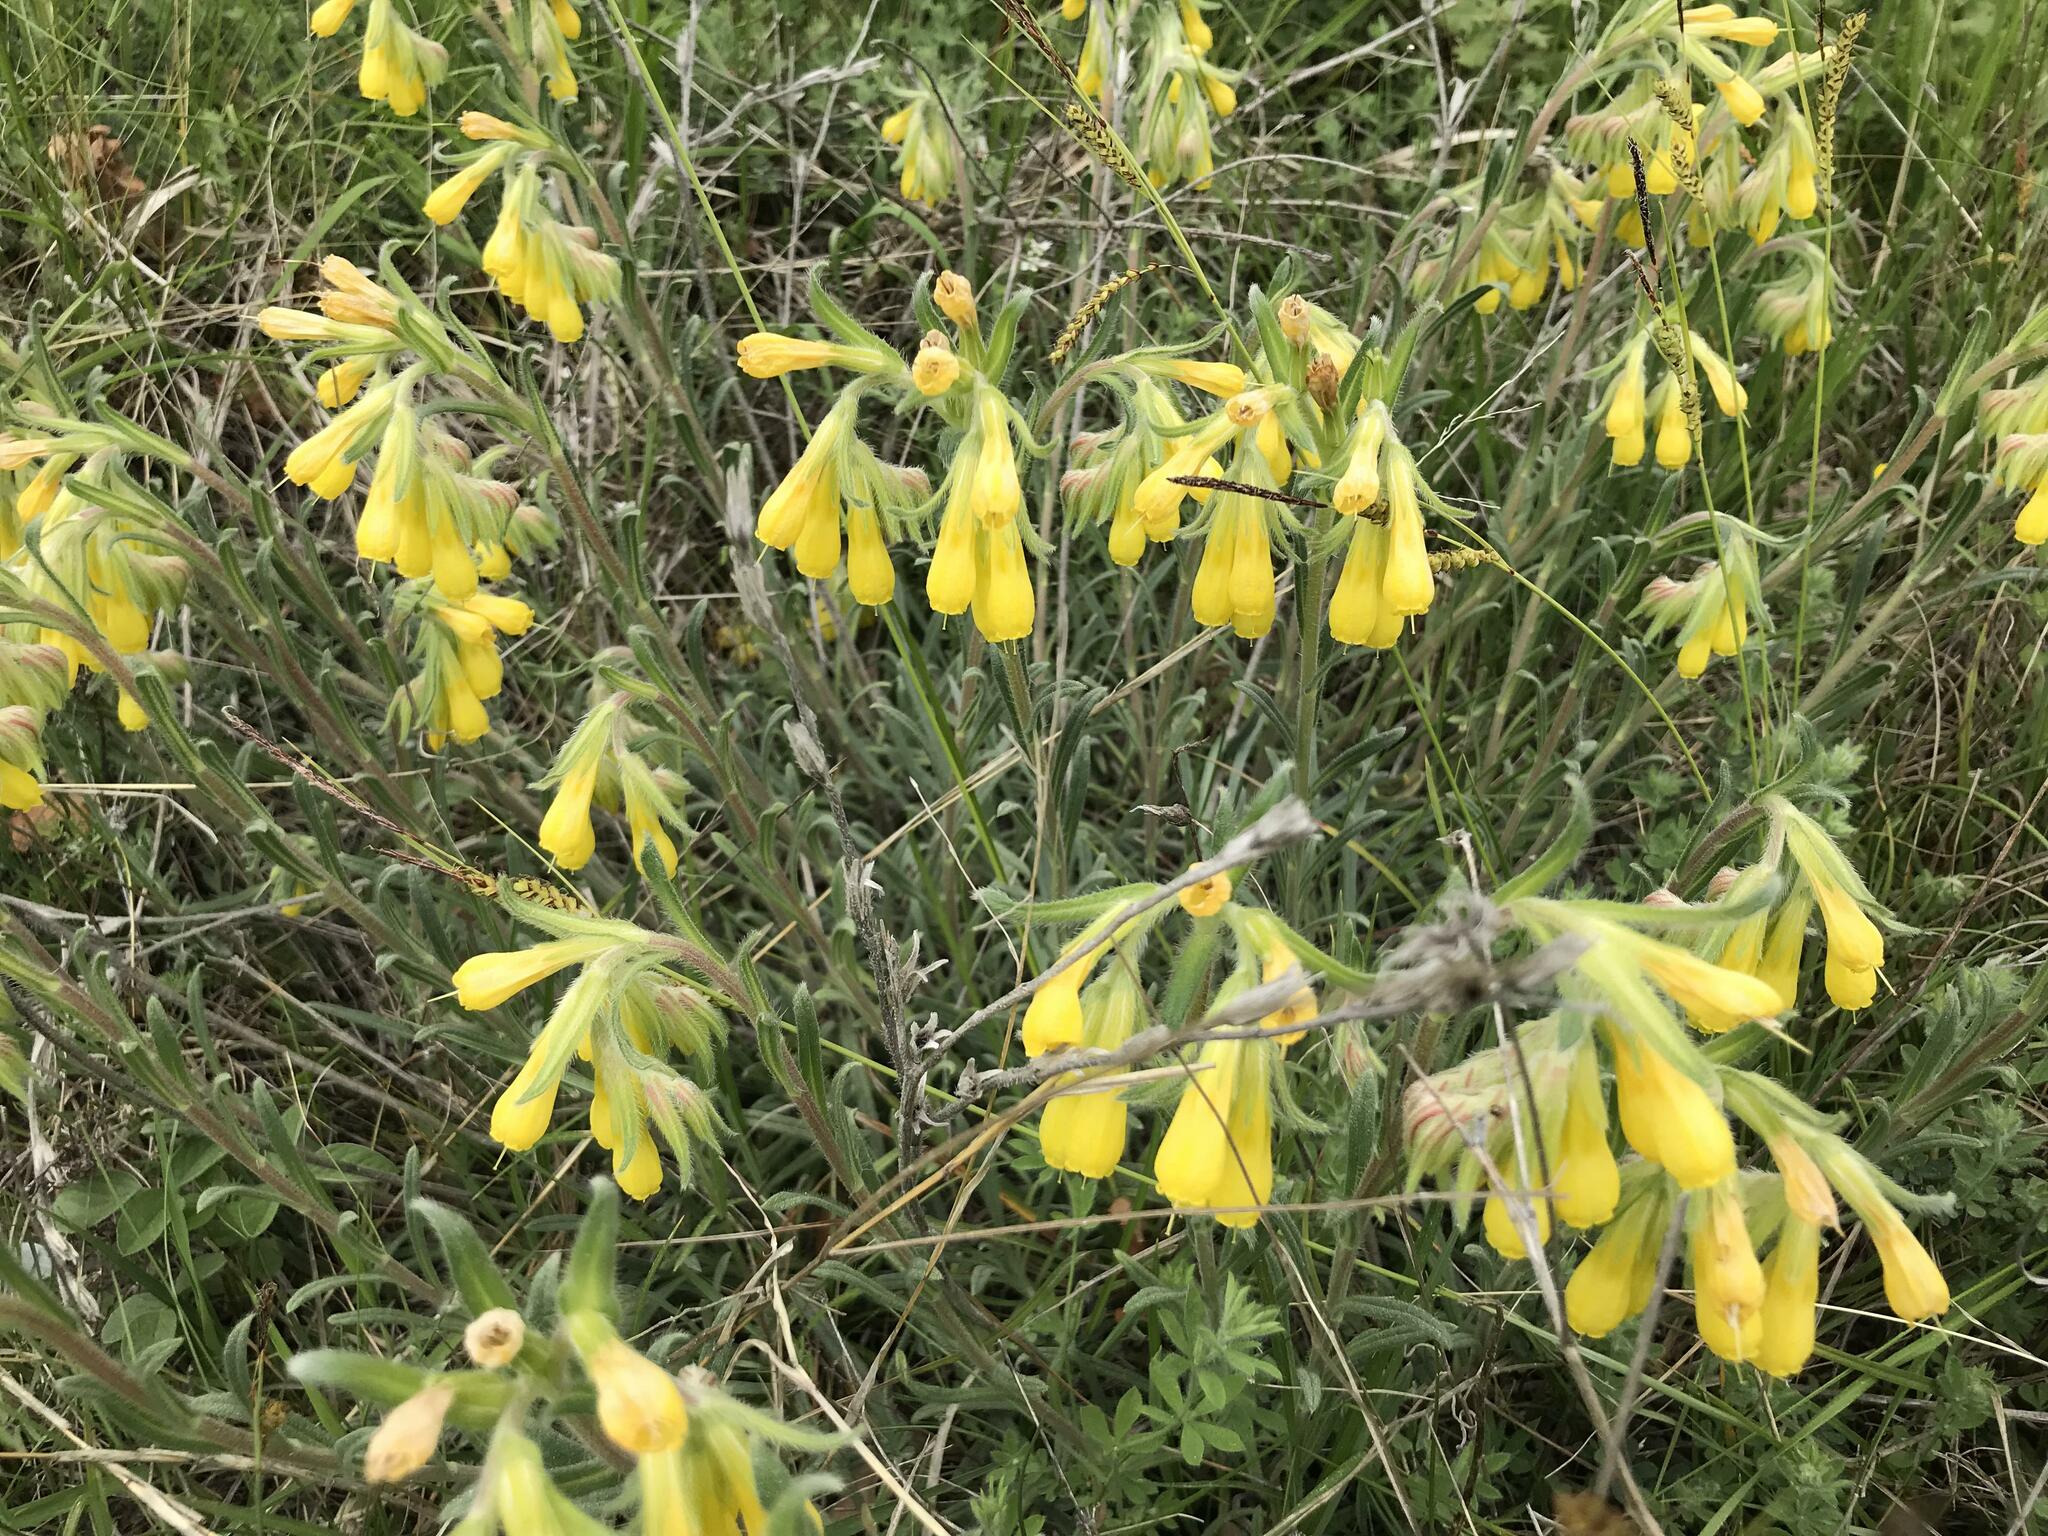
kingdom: Plantae
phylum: Tracheophyta
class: Magnoliopsida
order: Boraginales
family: Boraginaceae
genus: Onosma
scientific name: Onosma taurica
